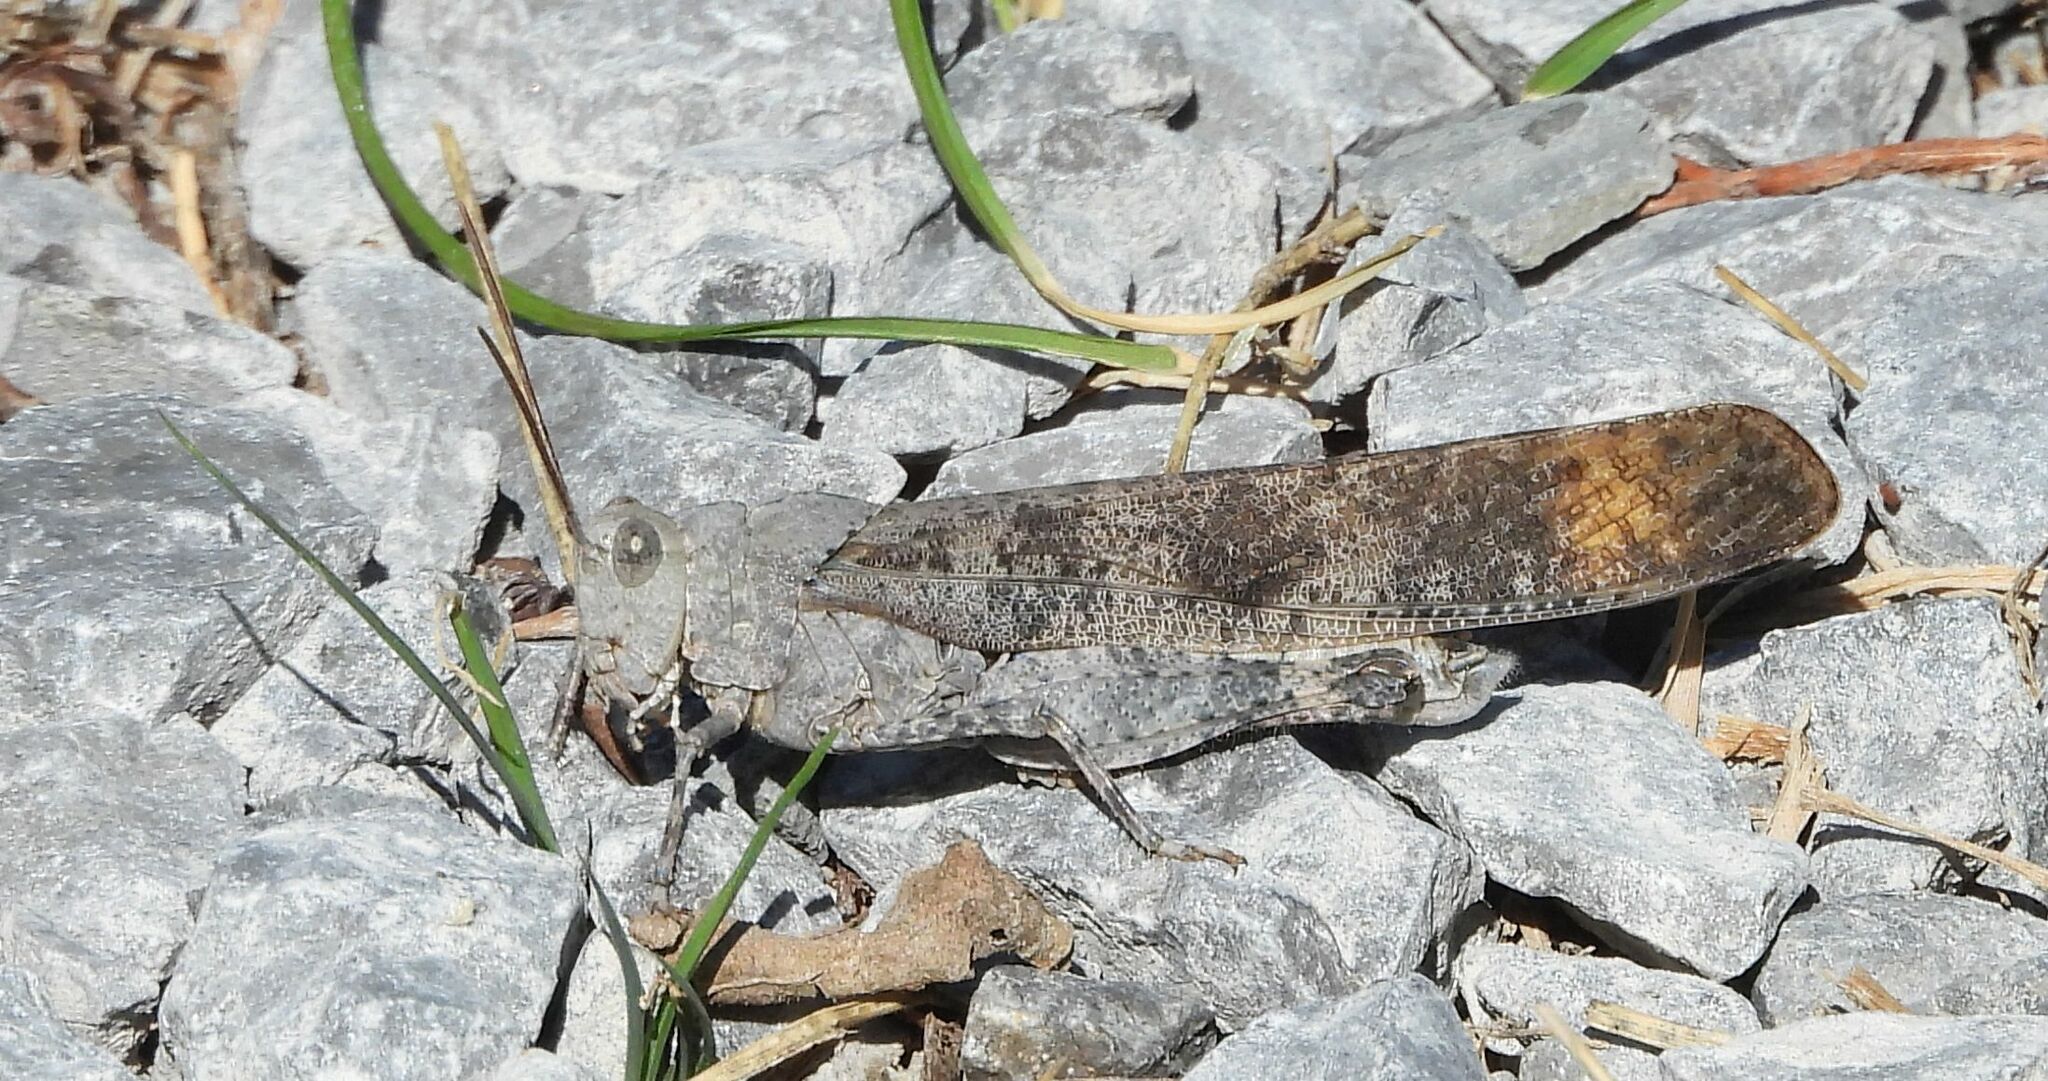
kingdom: Animalia
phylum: Arthropoda
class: Insecta
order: Orthoptera
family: Acrididae
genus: Dissosteira
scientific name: Dissosteira carolina
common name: Carolina grasshopper
